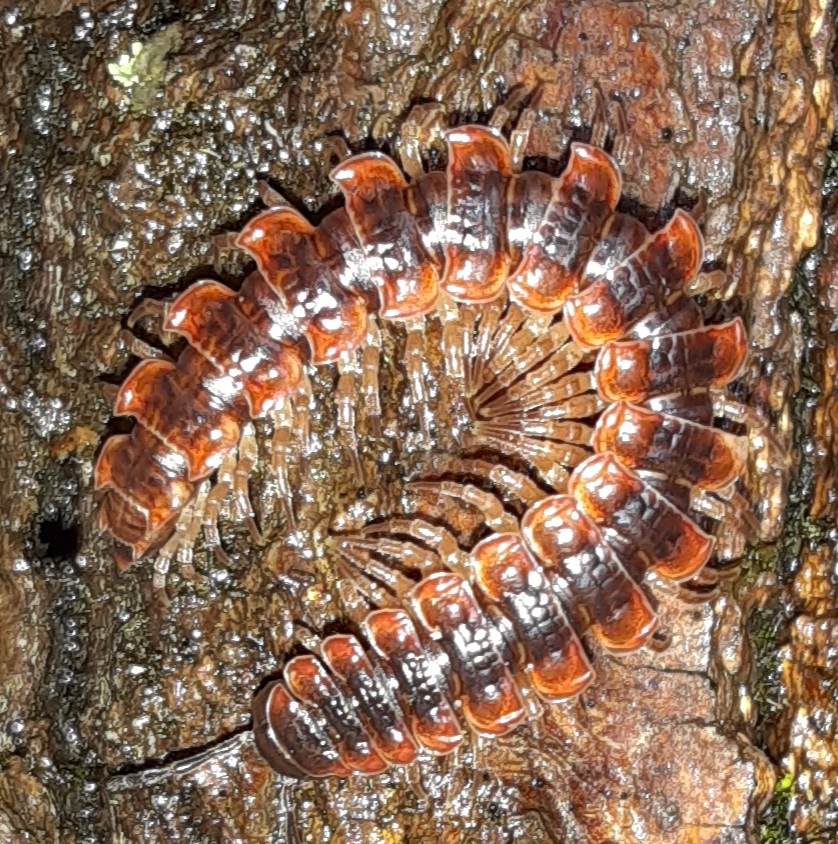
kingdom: Animalia
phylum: Arthropoda
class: Diplopoda
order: Polydesmida
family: Polydesmidae
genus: Pseudopolydesmus
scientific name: Pseudopolydesmus canadensis
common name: Canadian flat-back millipede
